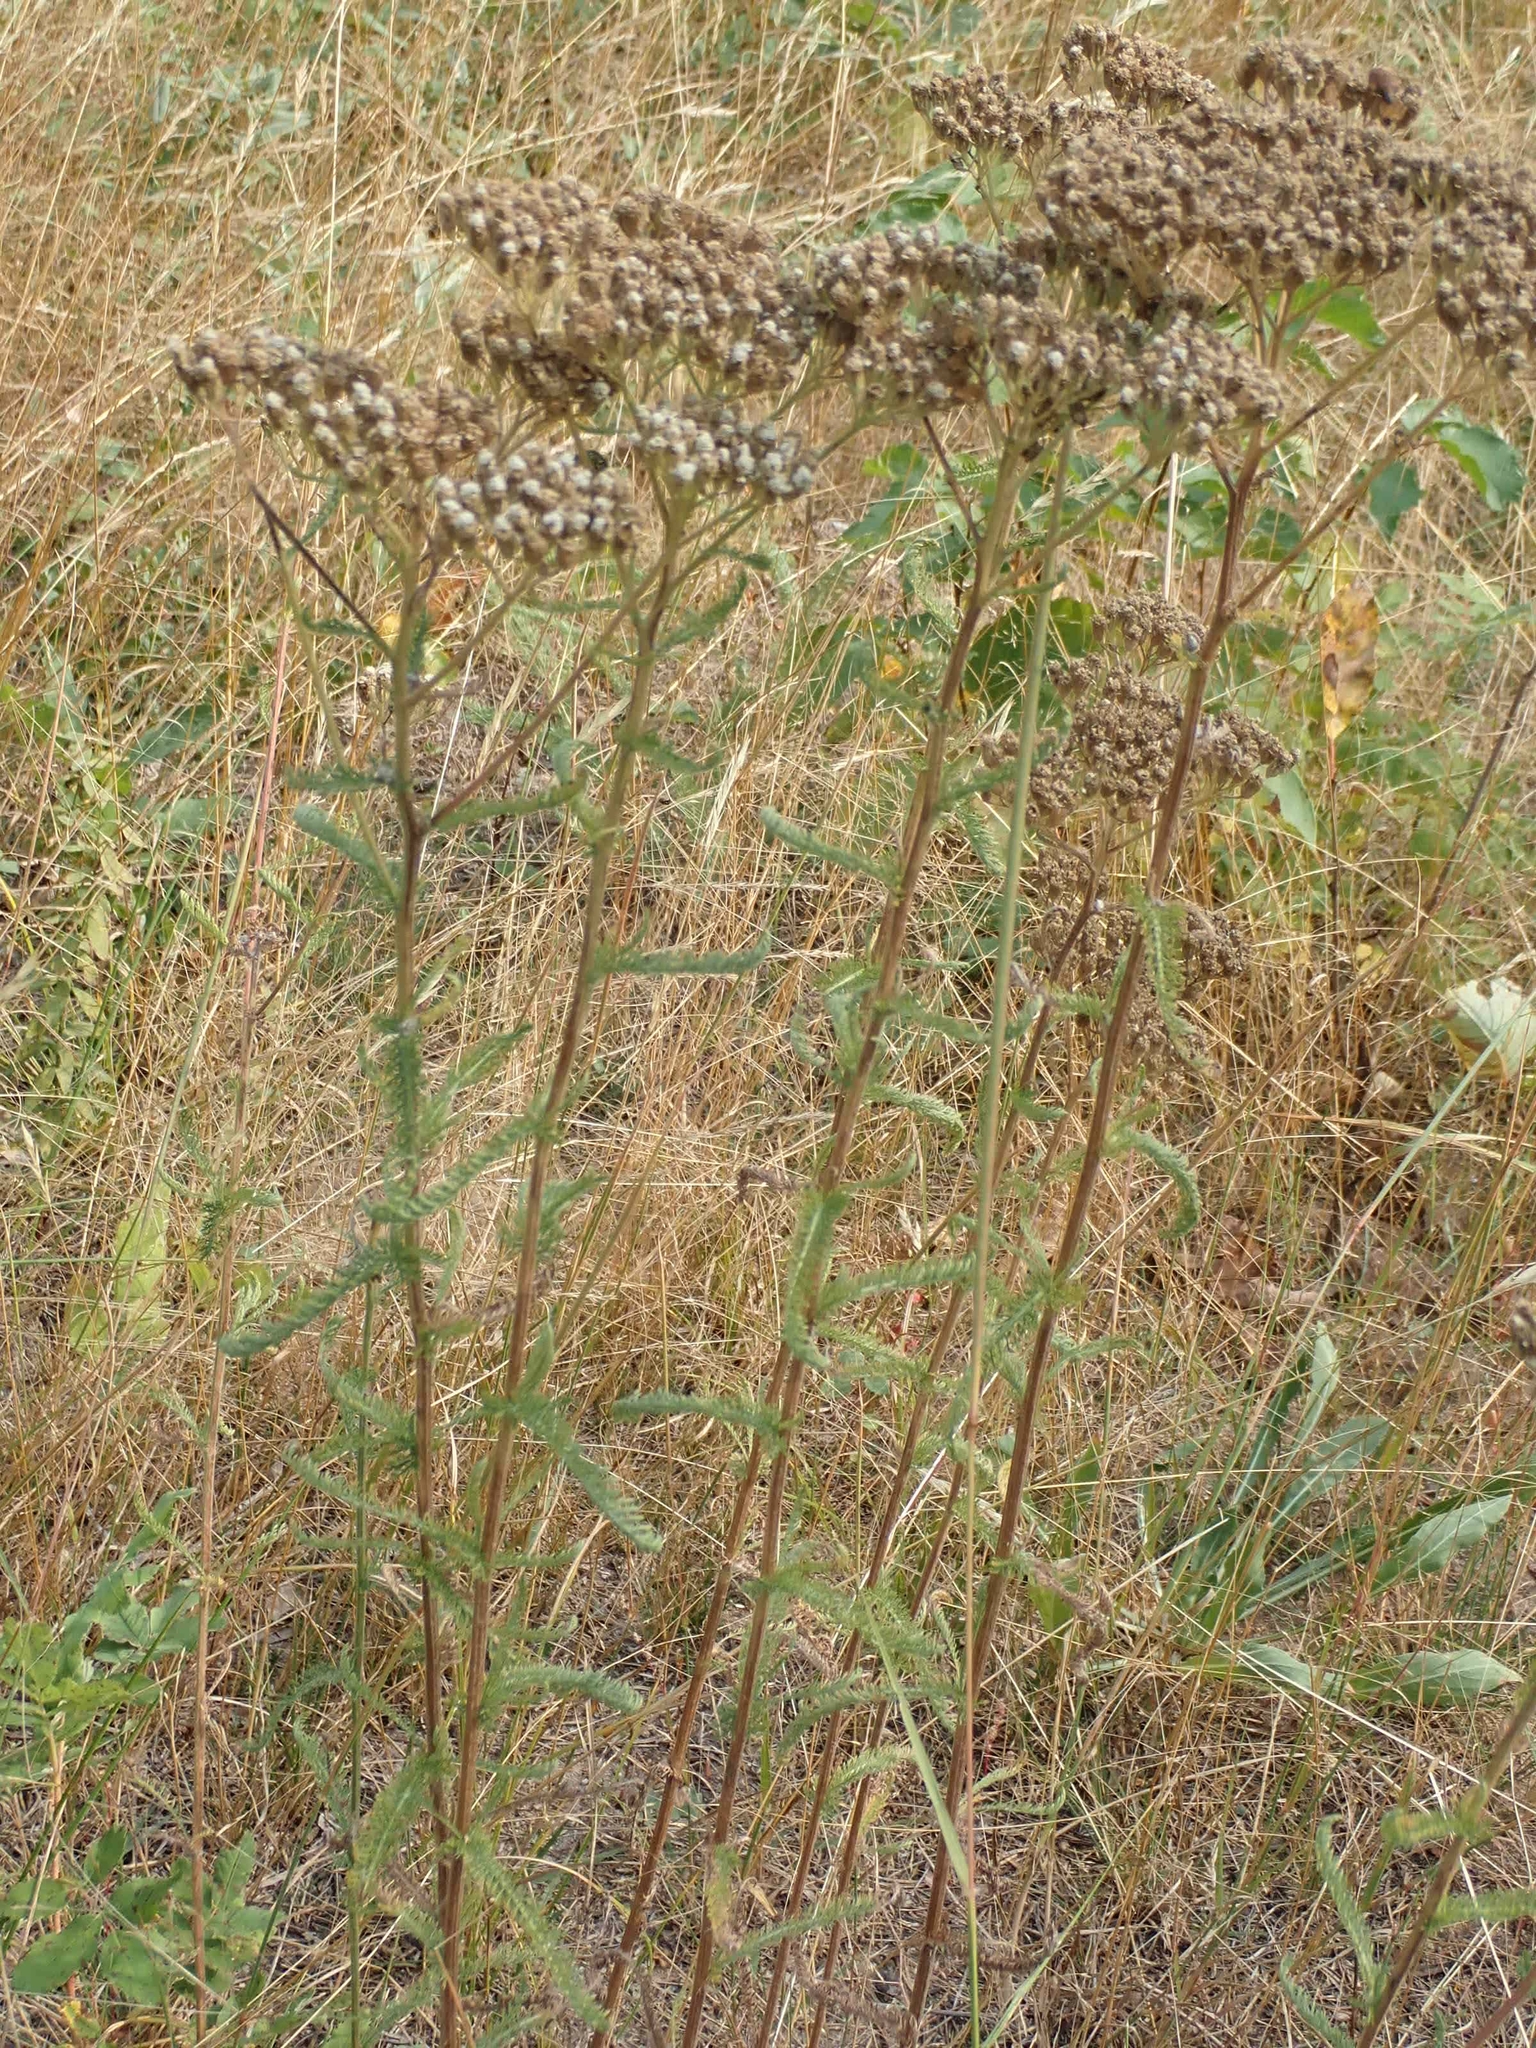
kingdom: Plantae
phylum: Tracheophyta
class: Magnoliopsida
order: Asterales
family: Asteraceae
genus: Achillea
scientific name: Achillea millefolium
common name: Yarrow
